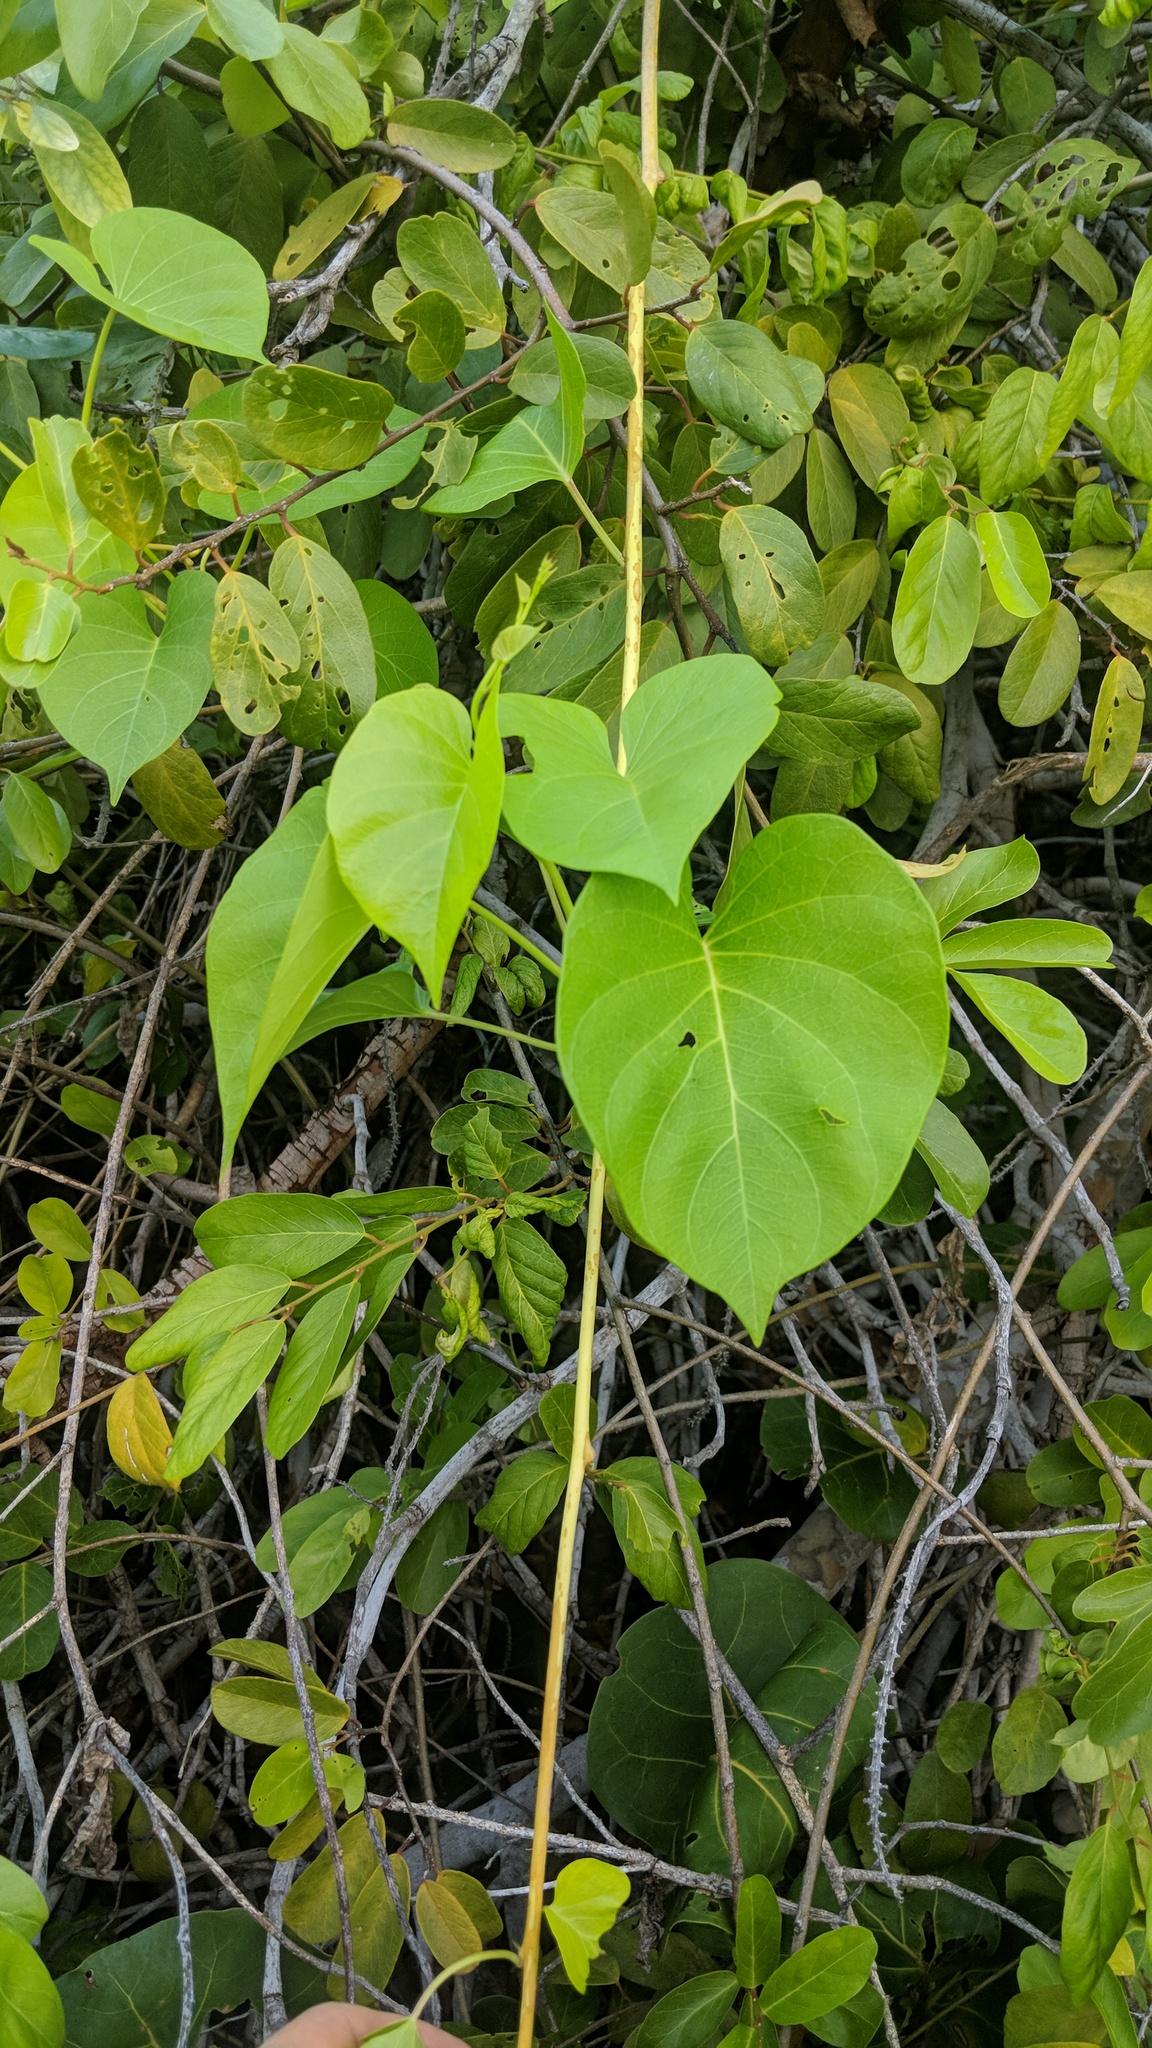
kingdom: Plantae
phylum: Tracheophyta
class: Magnoliopsida
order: Solanales
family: Convolvulaceae
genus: Ipomoea
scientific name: Ipomoea violacea
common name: Beach moonflower
